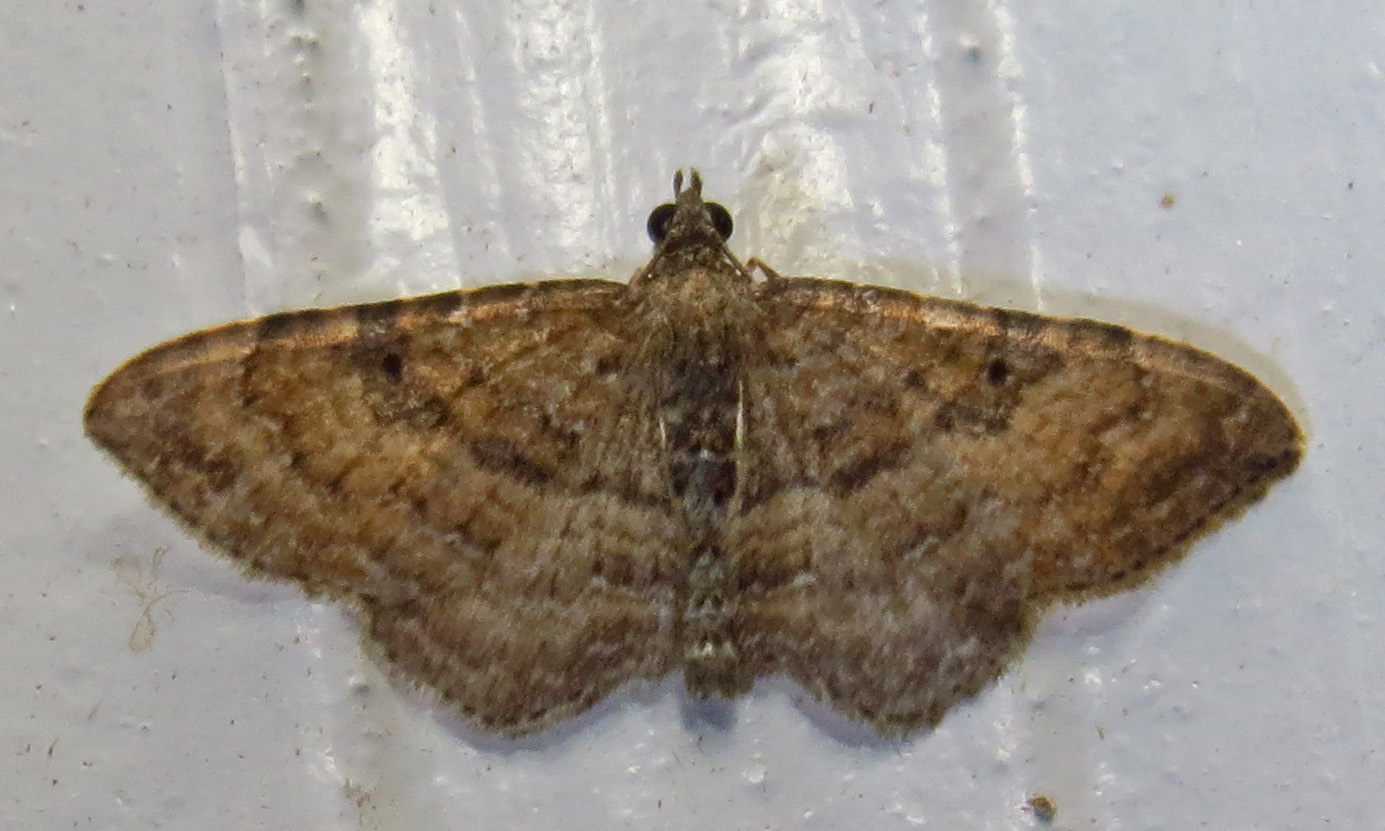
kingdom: Animalia
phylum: Arthropoda
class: Insecta
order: Lepidoptera
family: Geometridae
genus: Orthonama
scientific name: Orthonama obstipata
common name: The gem
